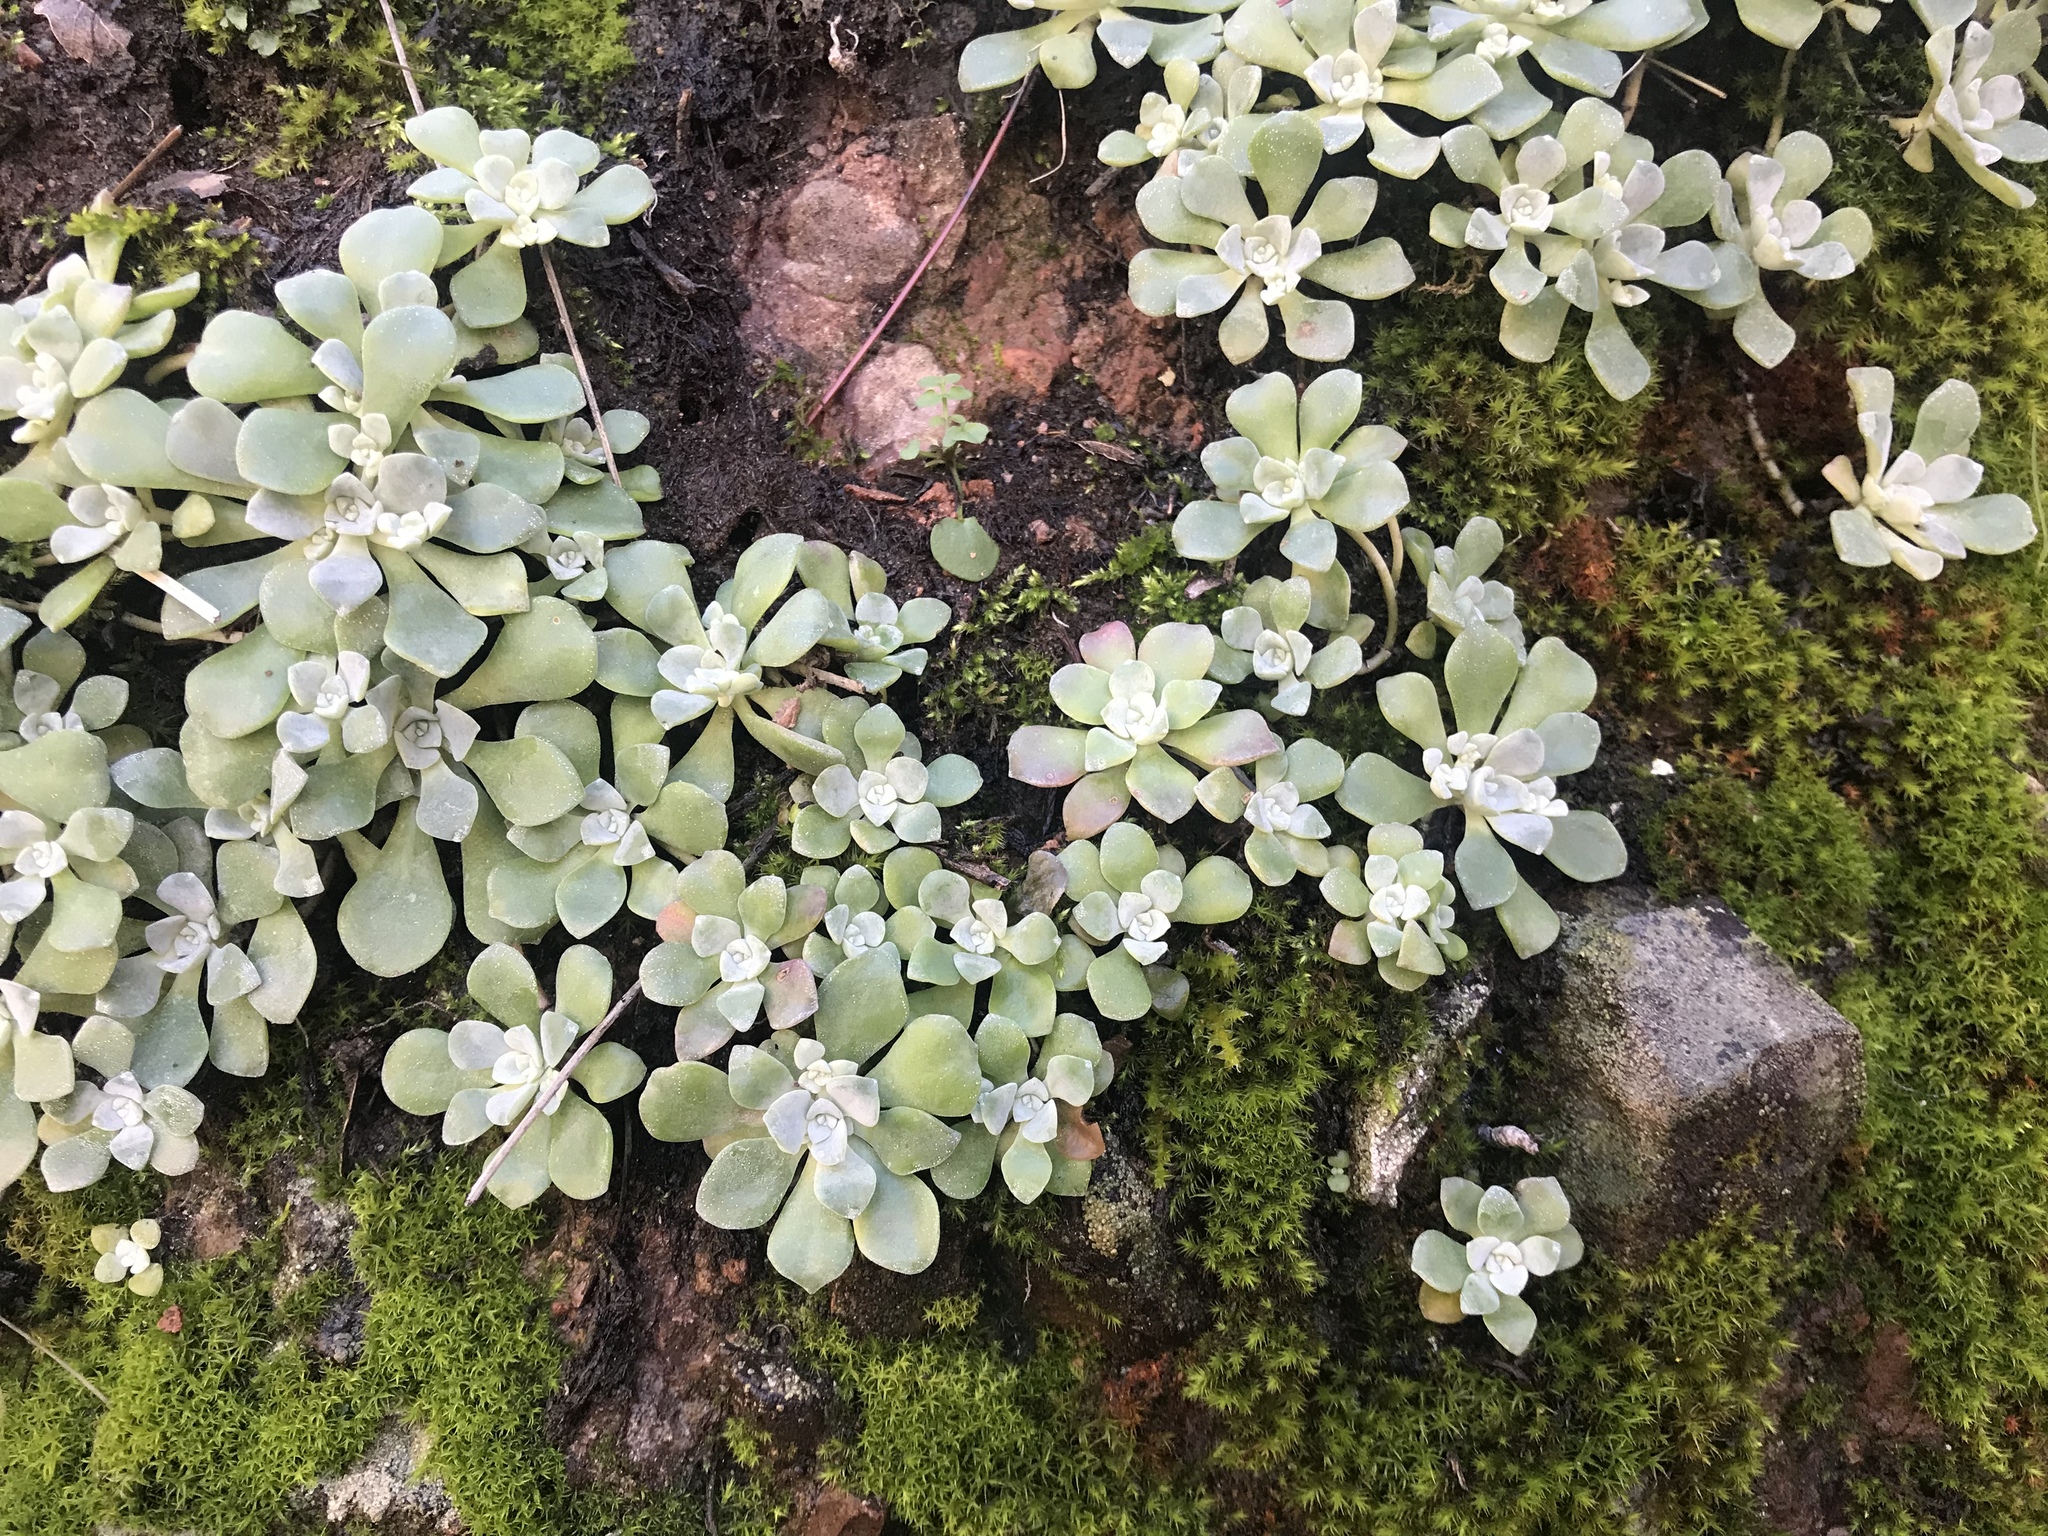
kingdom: Plantae
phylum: Tracheophyta
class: Magnoliopsida
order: Saxifragales
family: Crassulaceae
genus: Sedum
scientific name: Sedum spathulifolium
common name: Colorado stonecrop
